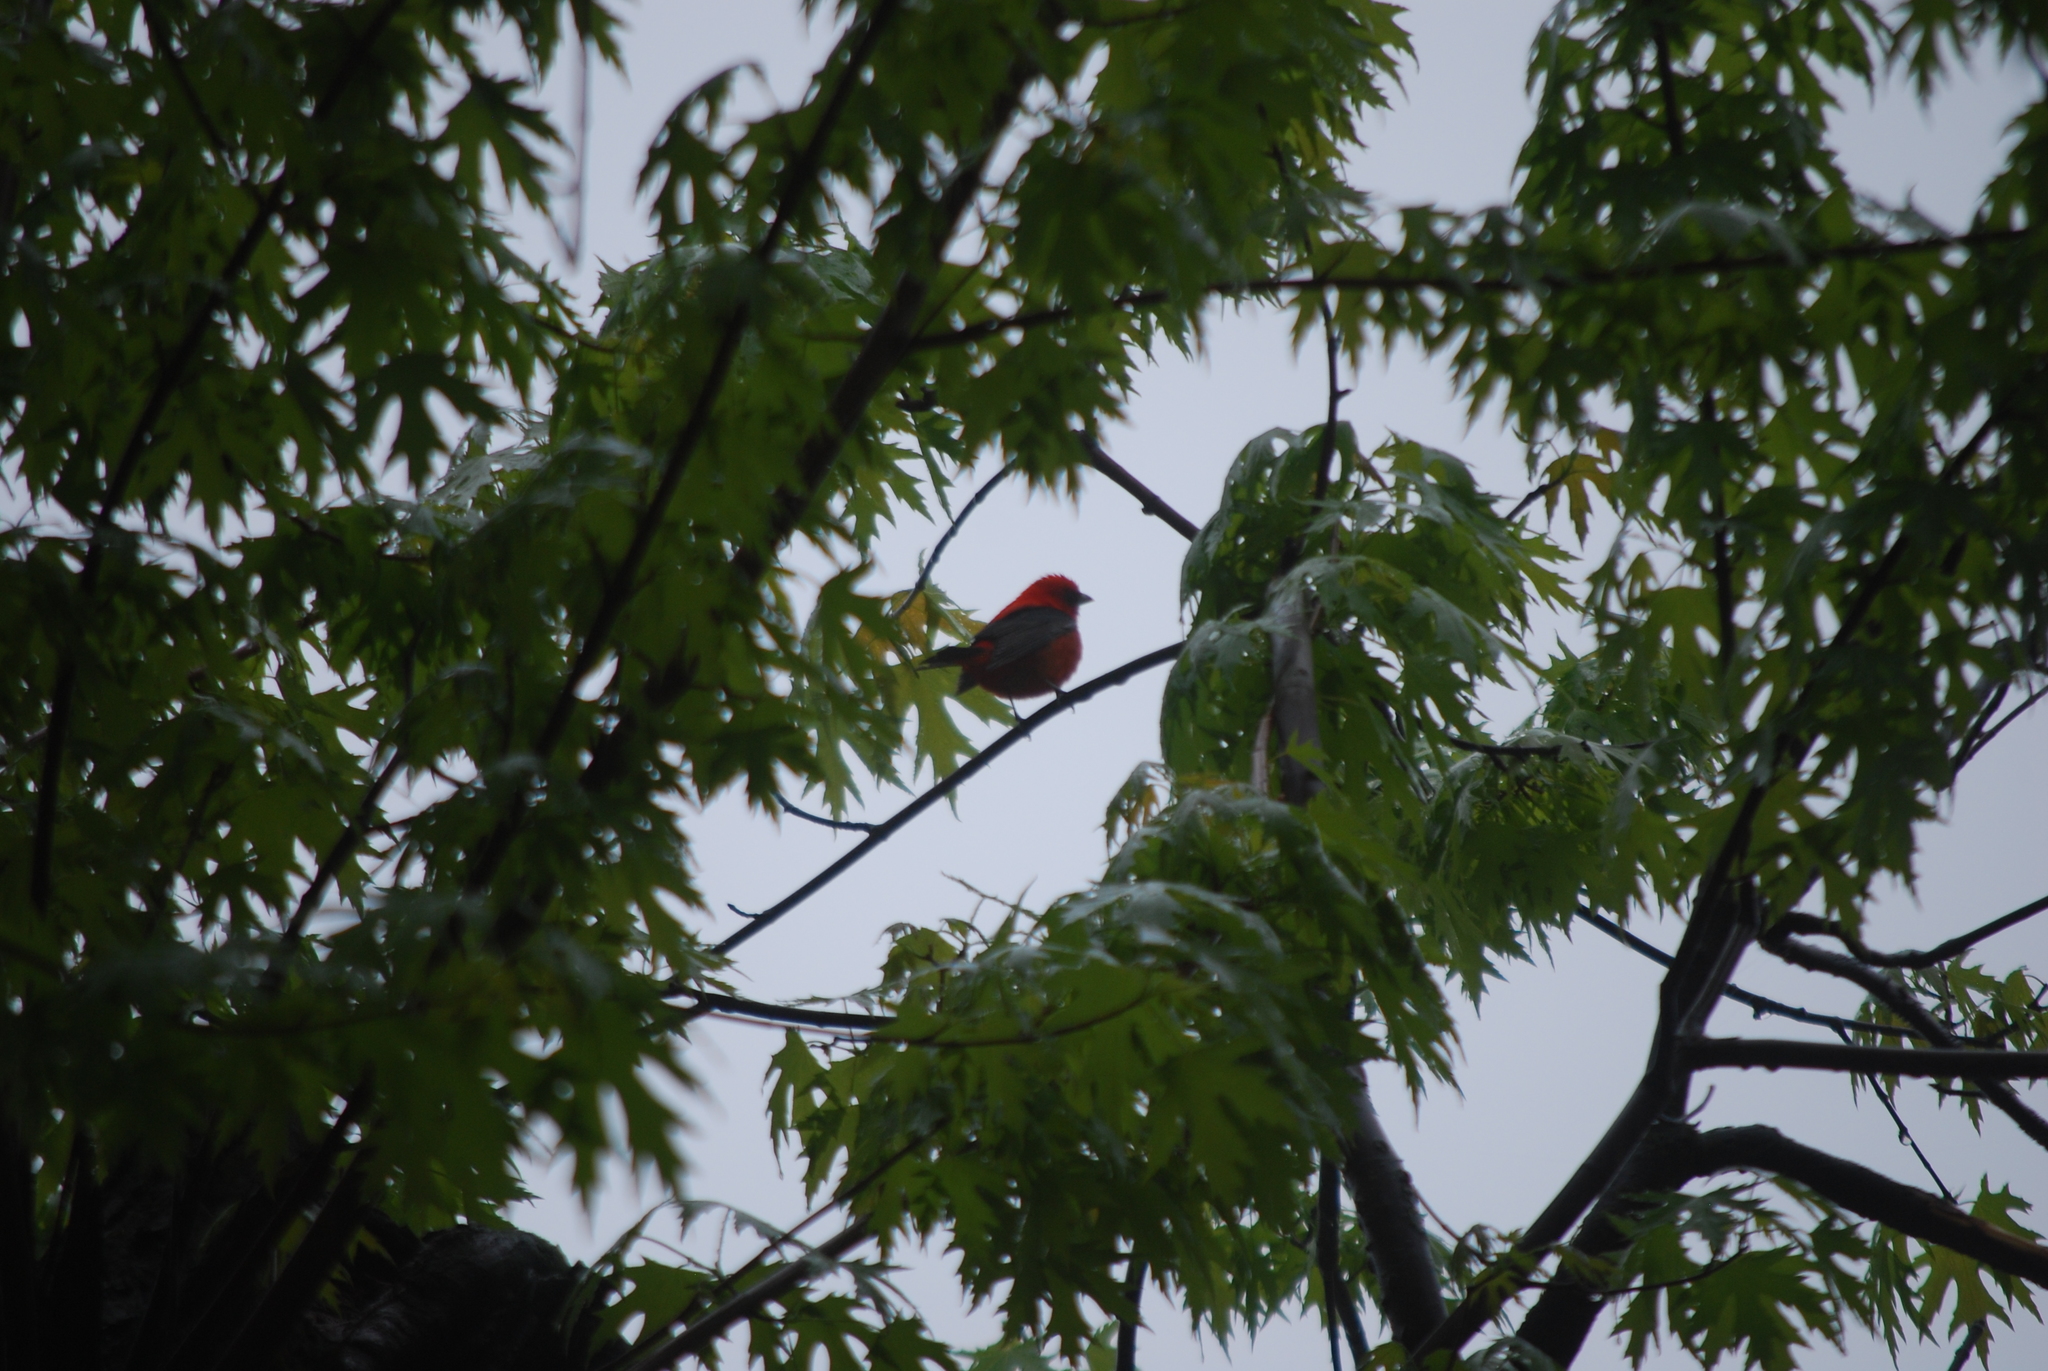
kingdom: Animalia
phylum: Chordata
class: Aves
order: Passeriformes
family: Cardinalidae
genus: Piranga
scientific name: Piranga olivacea
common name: Scarlet tanager
